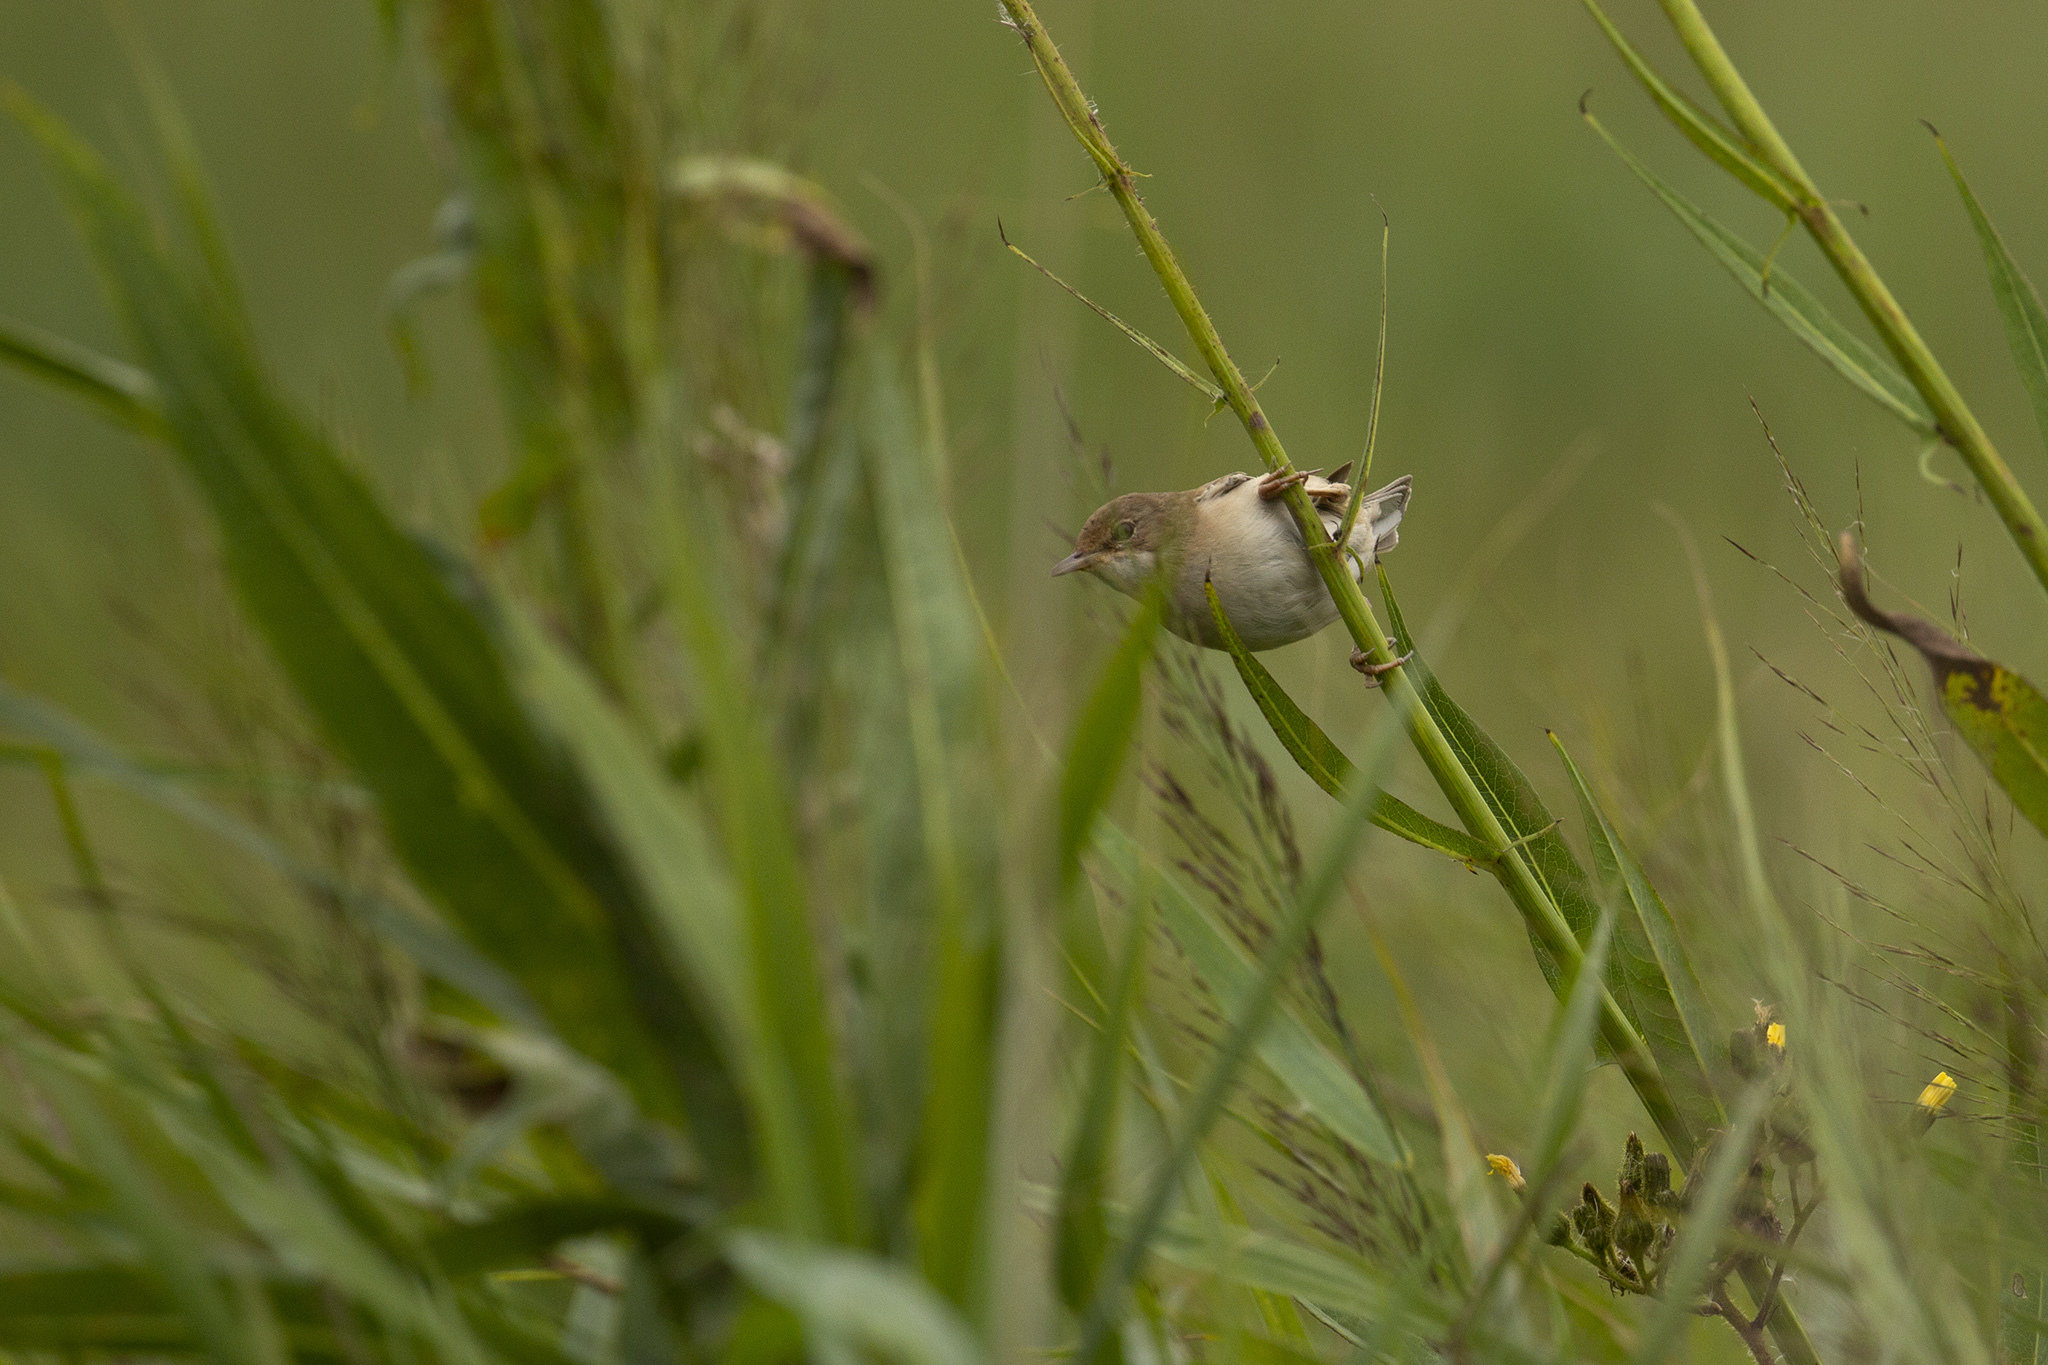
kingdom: Animalia
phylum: Chordata
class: Aves
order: Passeriformes
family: Sylviidae
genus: Sylvia
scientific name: Sylvia communis
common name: Common whitethroat
